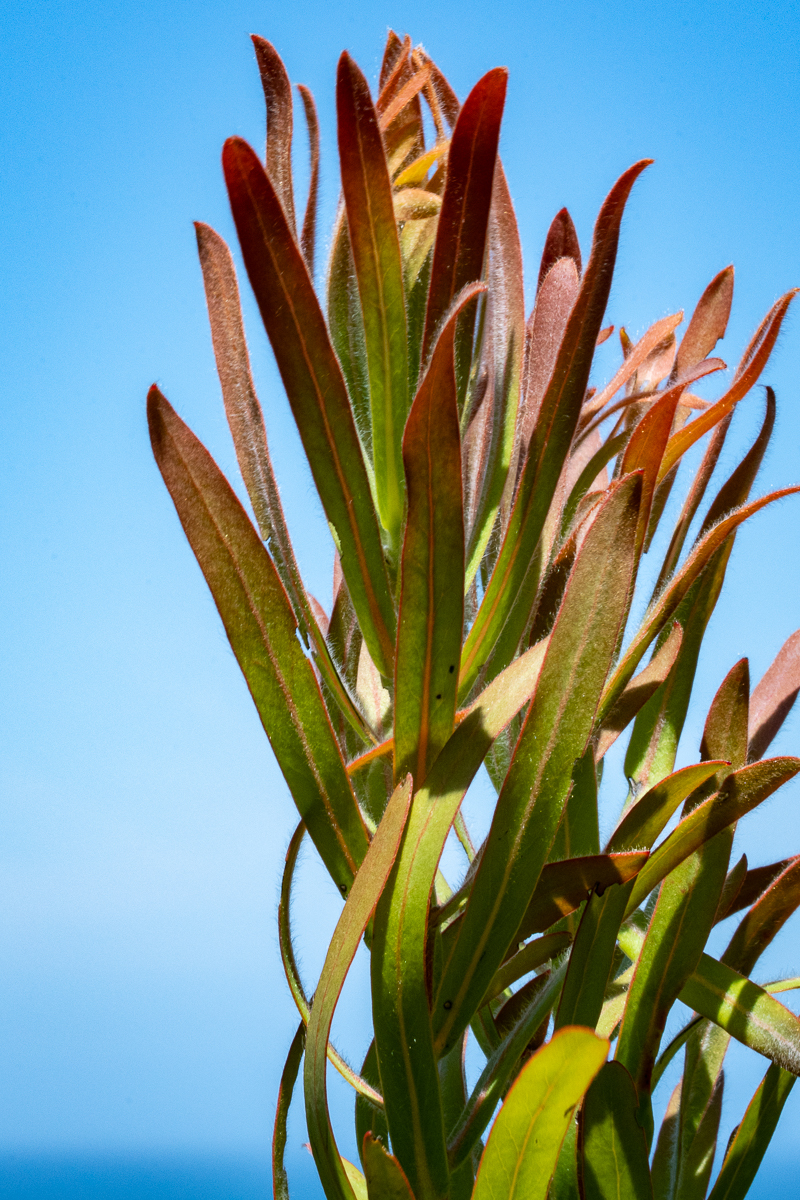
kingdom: Plantae
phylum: Tracheophyta
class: Magnoliopsida
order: Proteales
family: Proteaceae
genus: Protea
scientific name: Protea lepidocarpodendron
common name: Black-bearded protea
